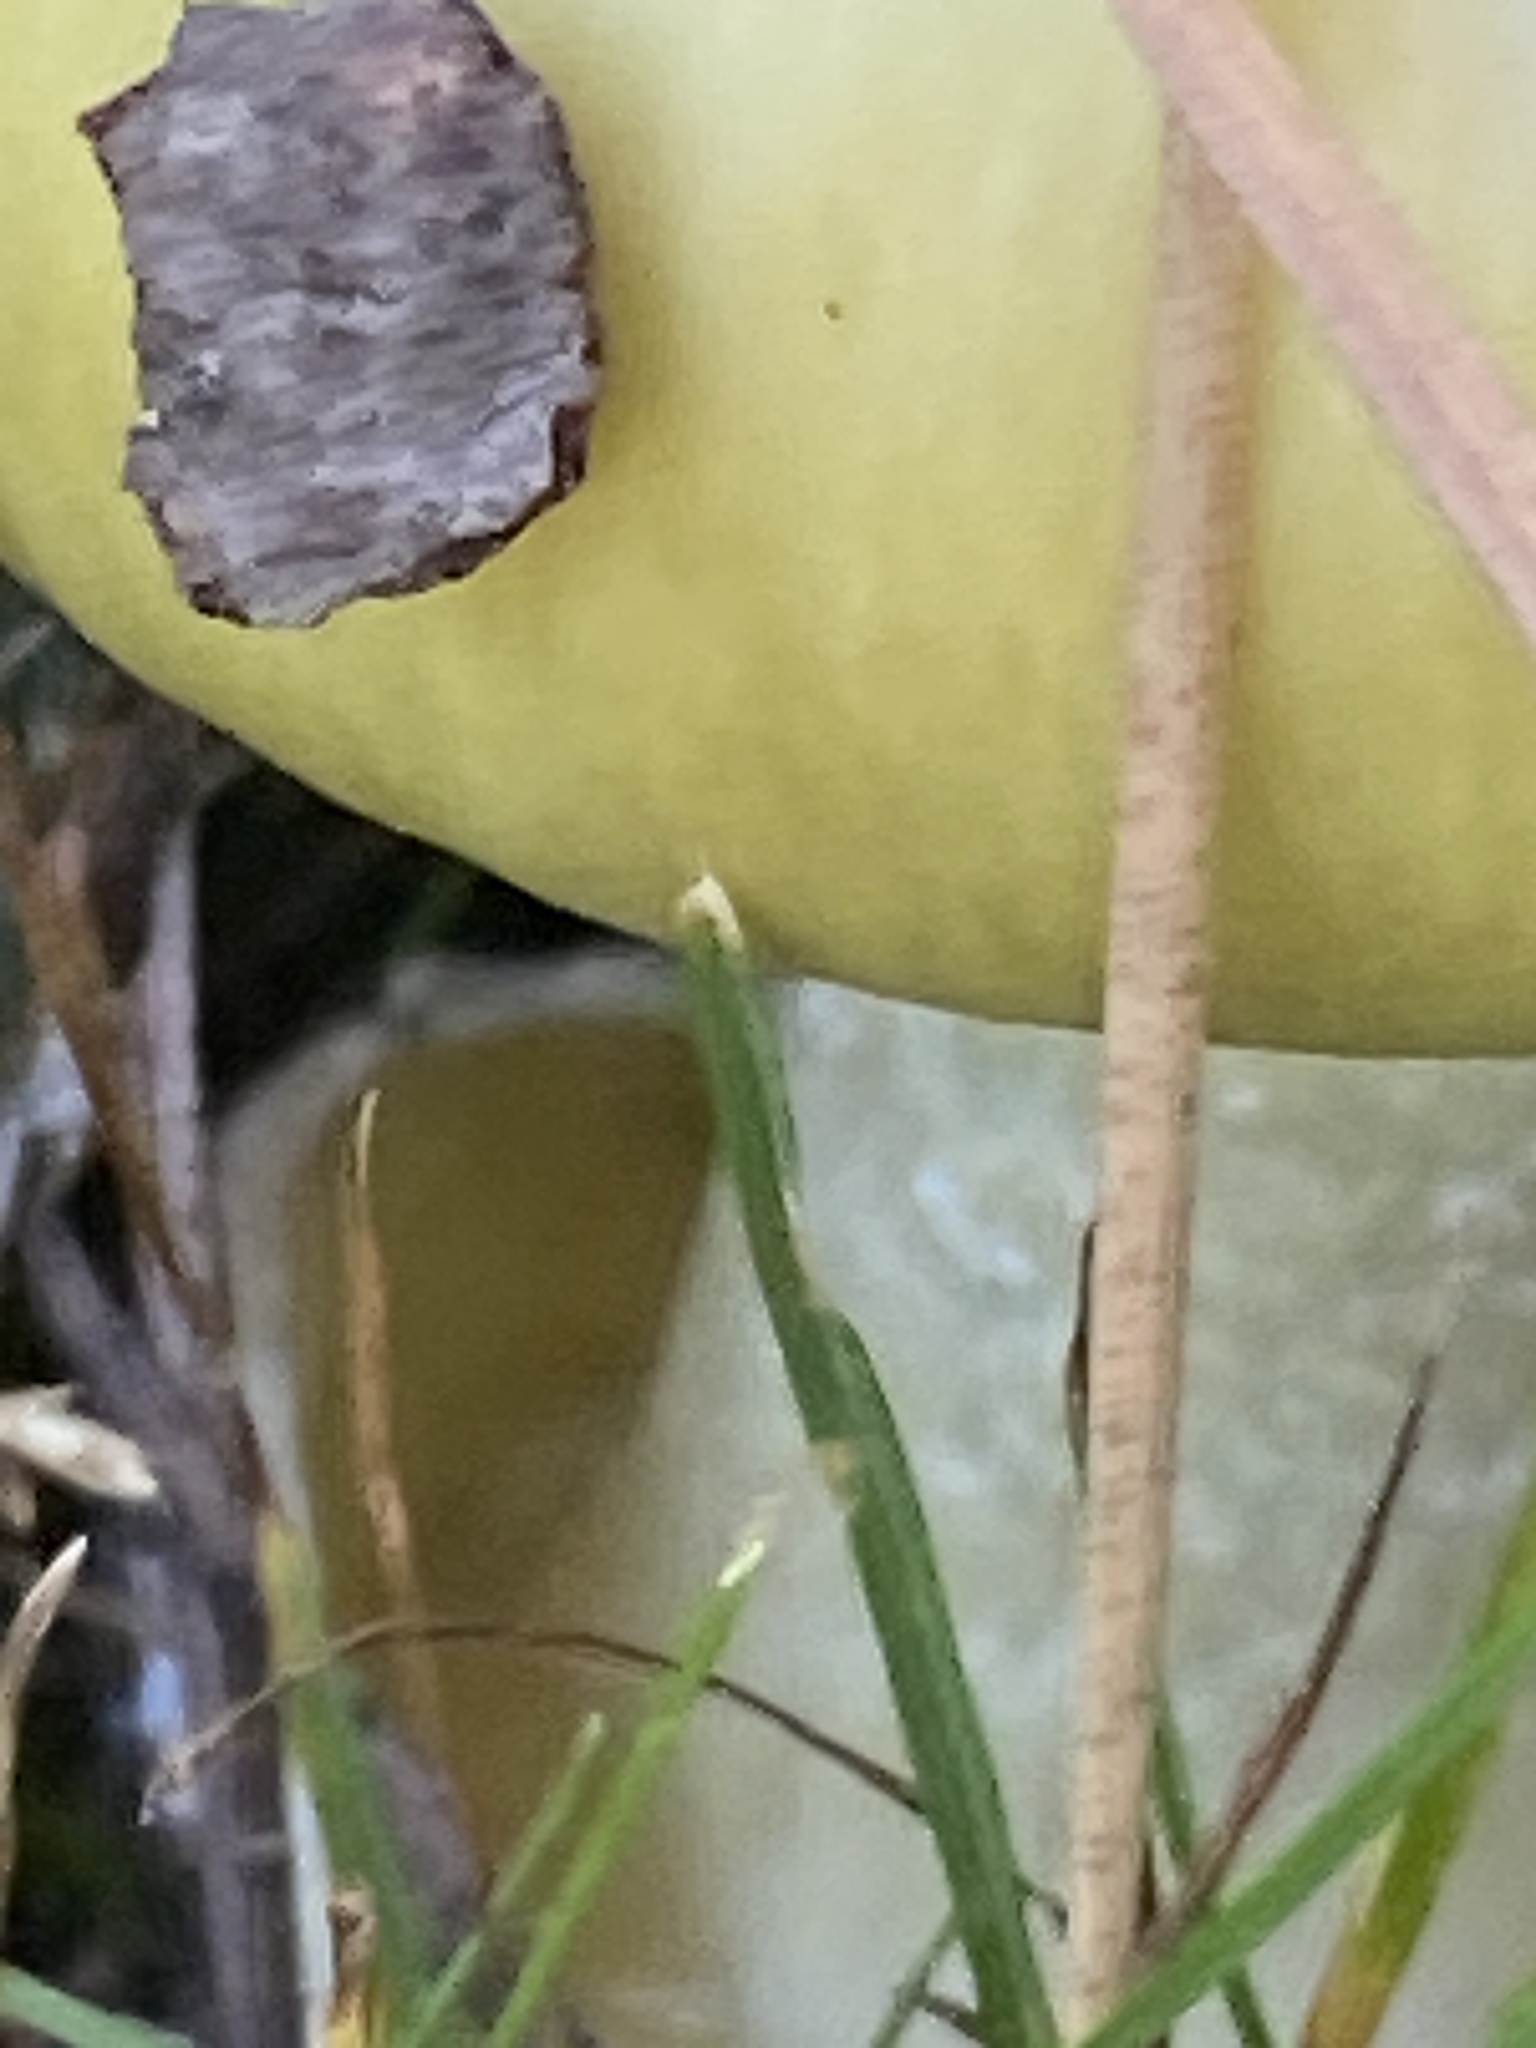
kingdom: Fungi
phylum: Basidiomycota
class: Agaricomycetes
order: Agaricales
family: Amanitaceae
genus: Amanita
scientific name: Amanita phalloides
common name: Death cap
